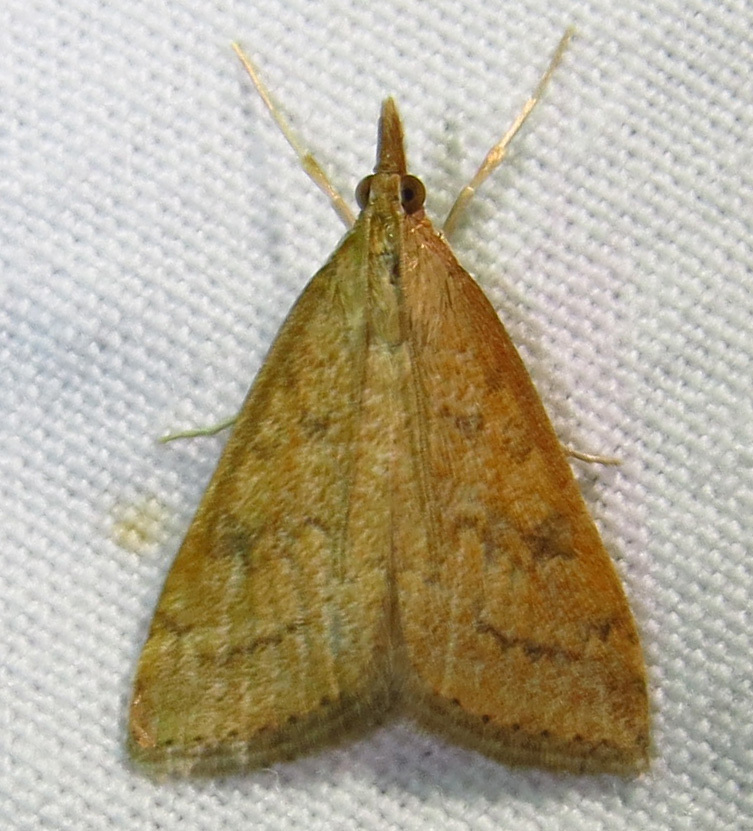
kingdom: Animalia
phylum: Arthropoda
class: Insecta
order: Lepidoptera
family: Crambidae
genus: Udea
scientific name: Udea rubigalis
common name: Celery leaftier moth
